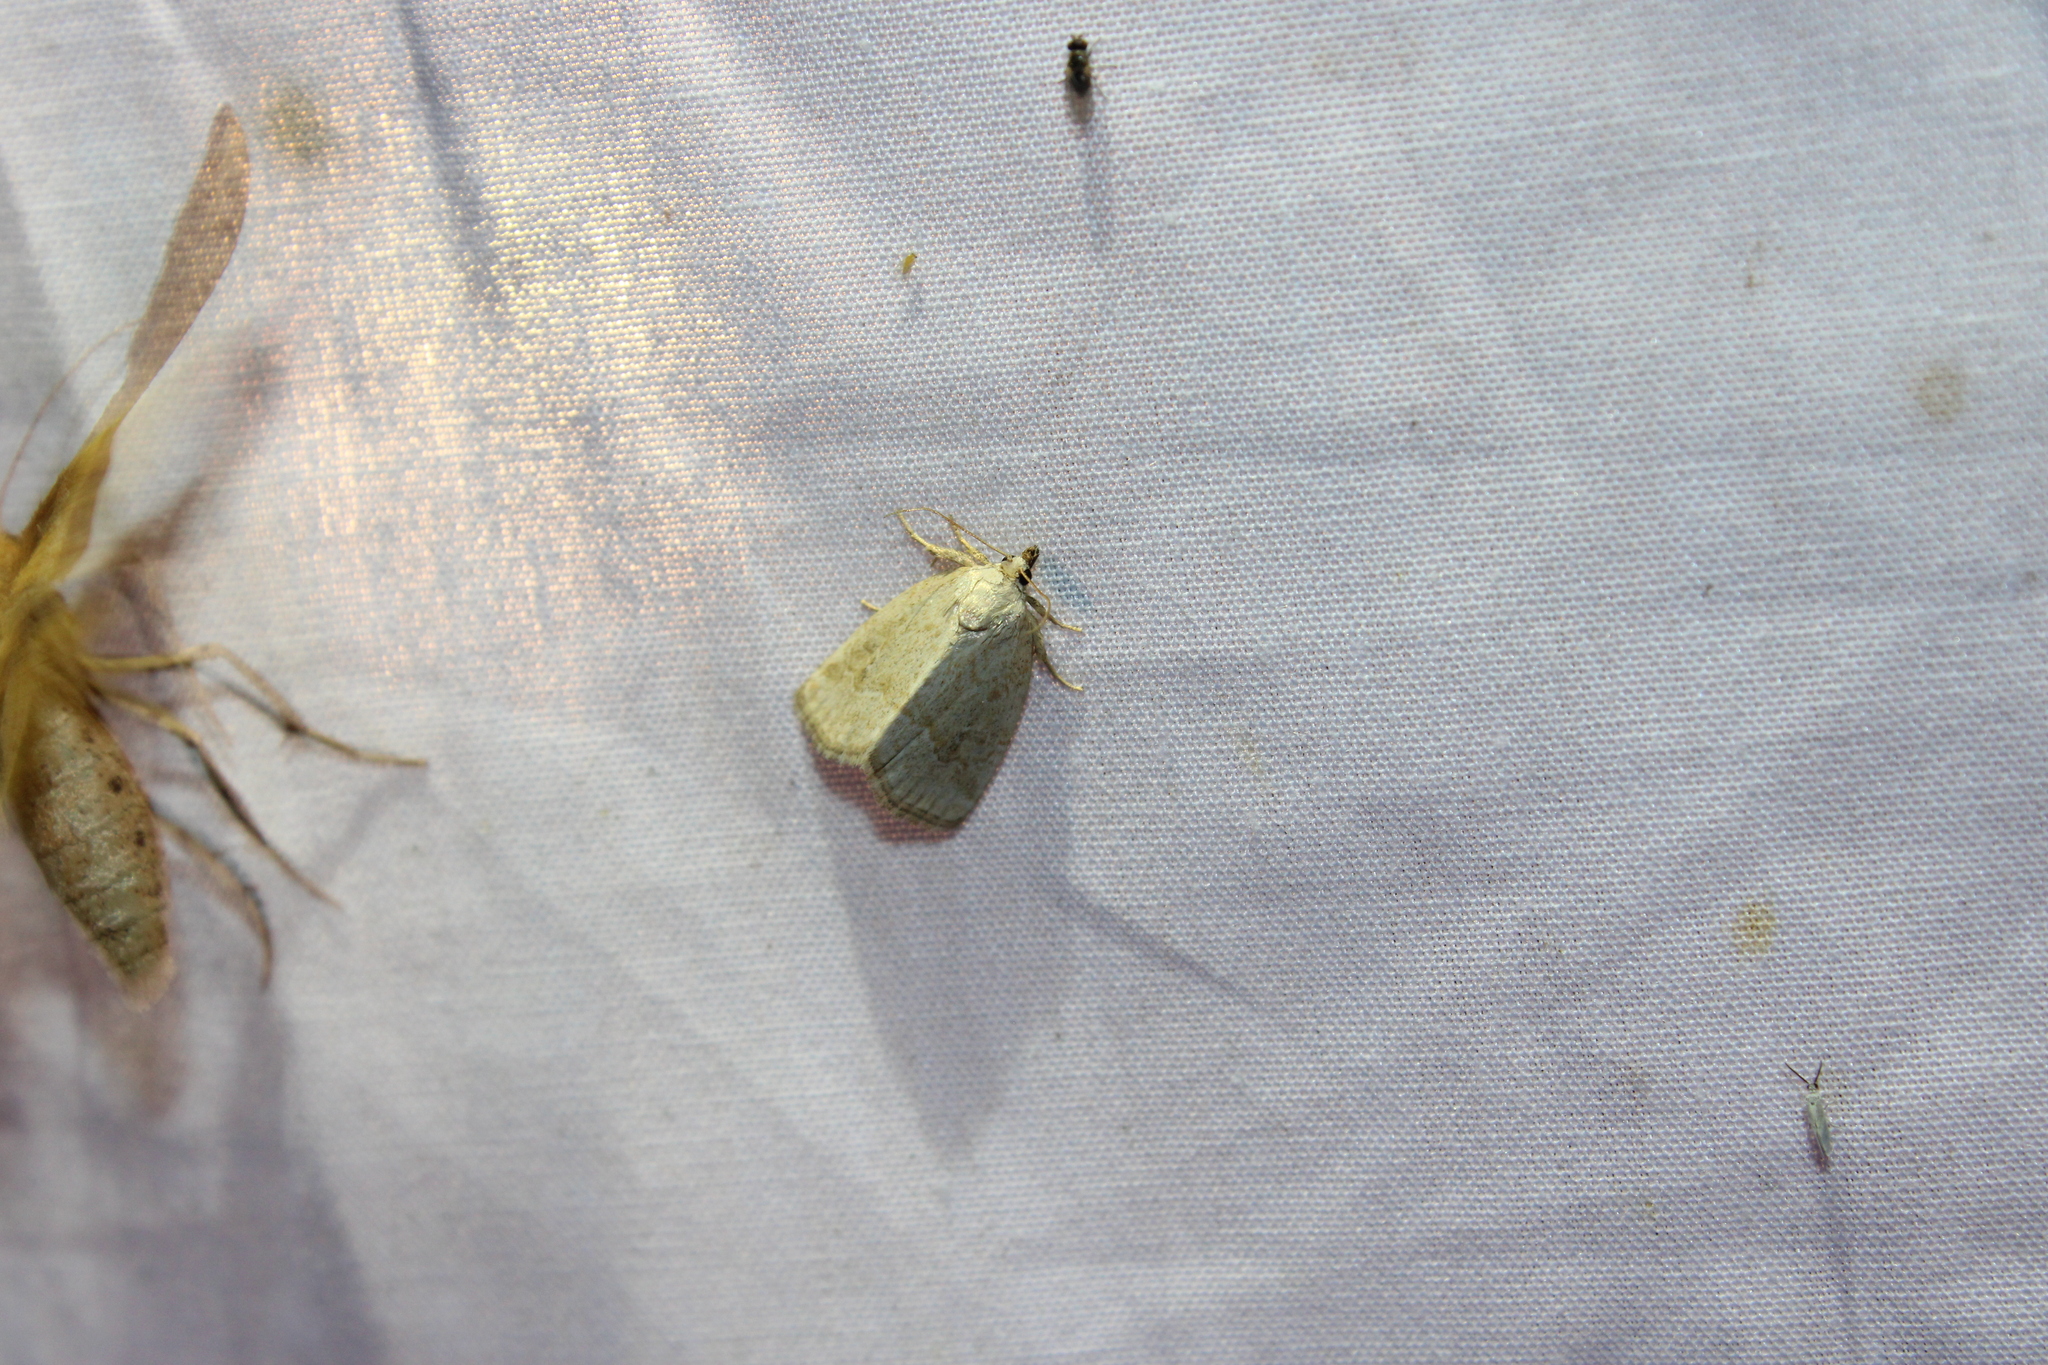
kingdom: Animalia
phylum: Arthropoda
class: Insecta
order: Lepidoptera
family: Noctuidae
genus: Protodeltote
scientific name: Protodeltote albidula
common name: Pale glyph
